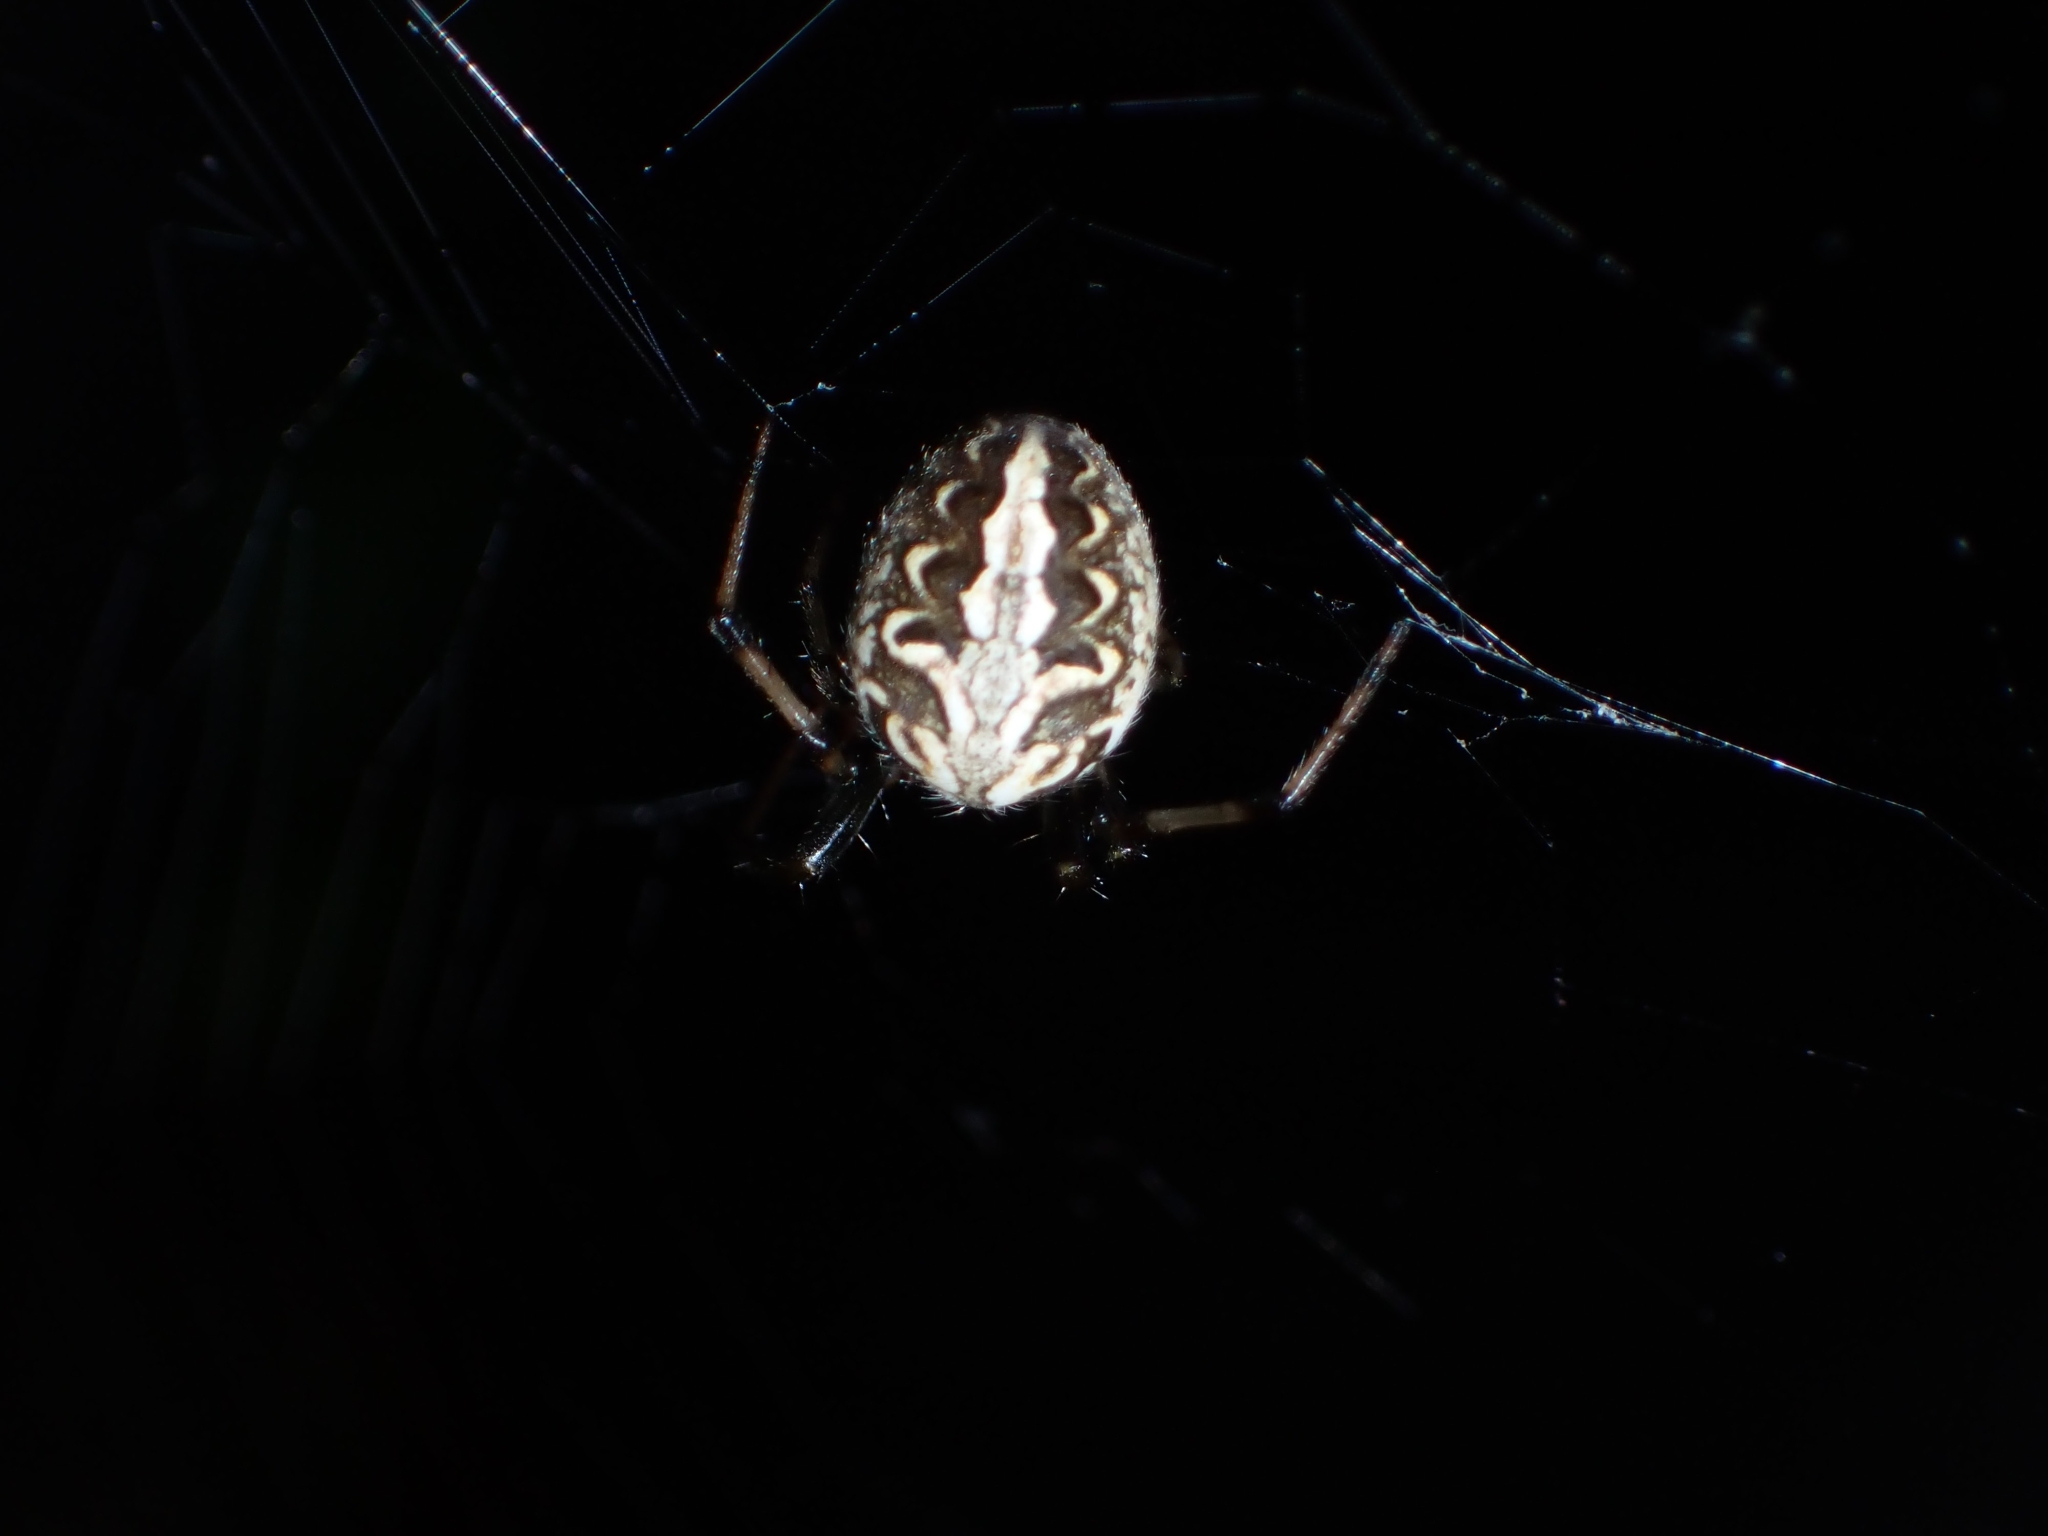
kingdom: Animalia
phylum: Arthropoda
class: Arachnida
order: Araneae
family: Araneidae
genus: Neoscona
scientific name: Neoscona theisi
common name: Spider
